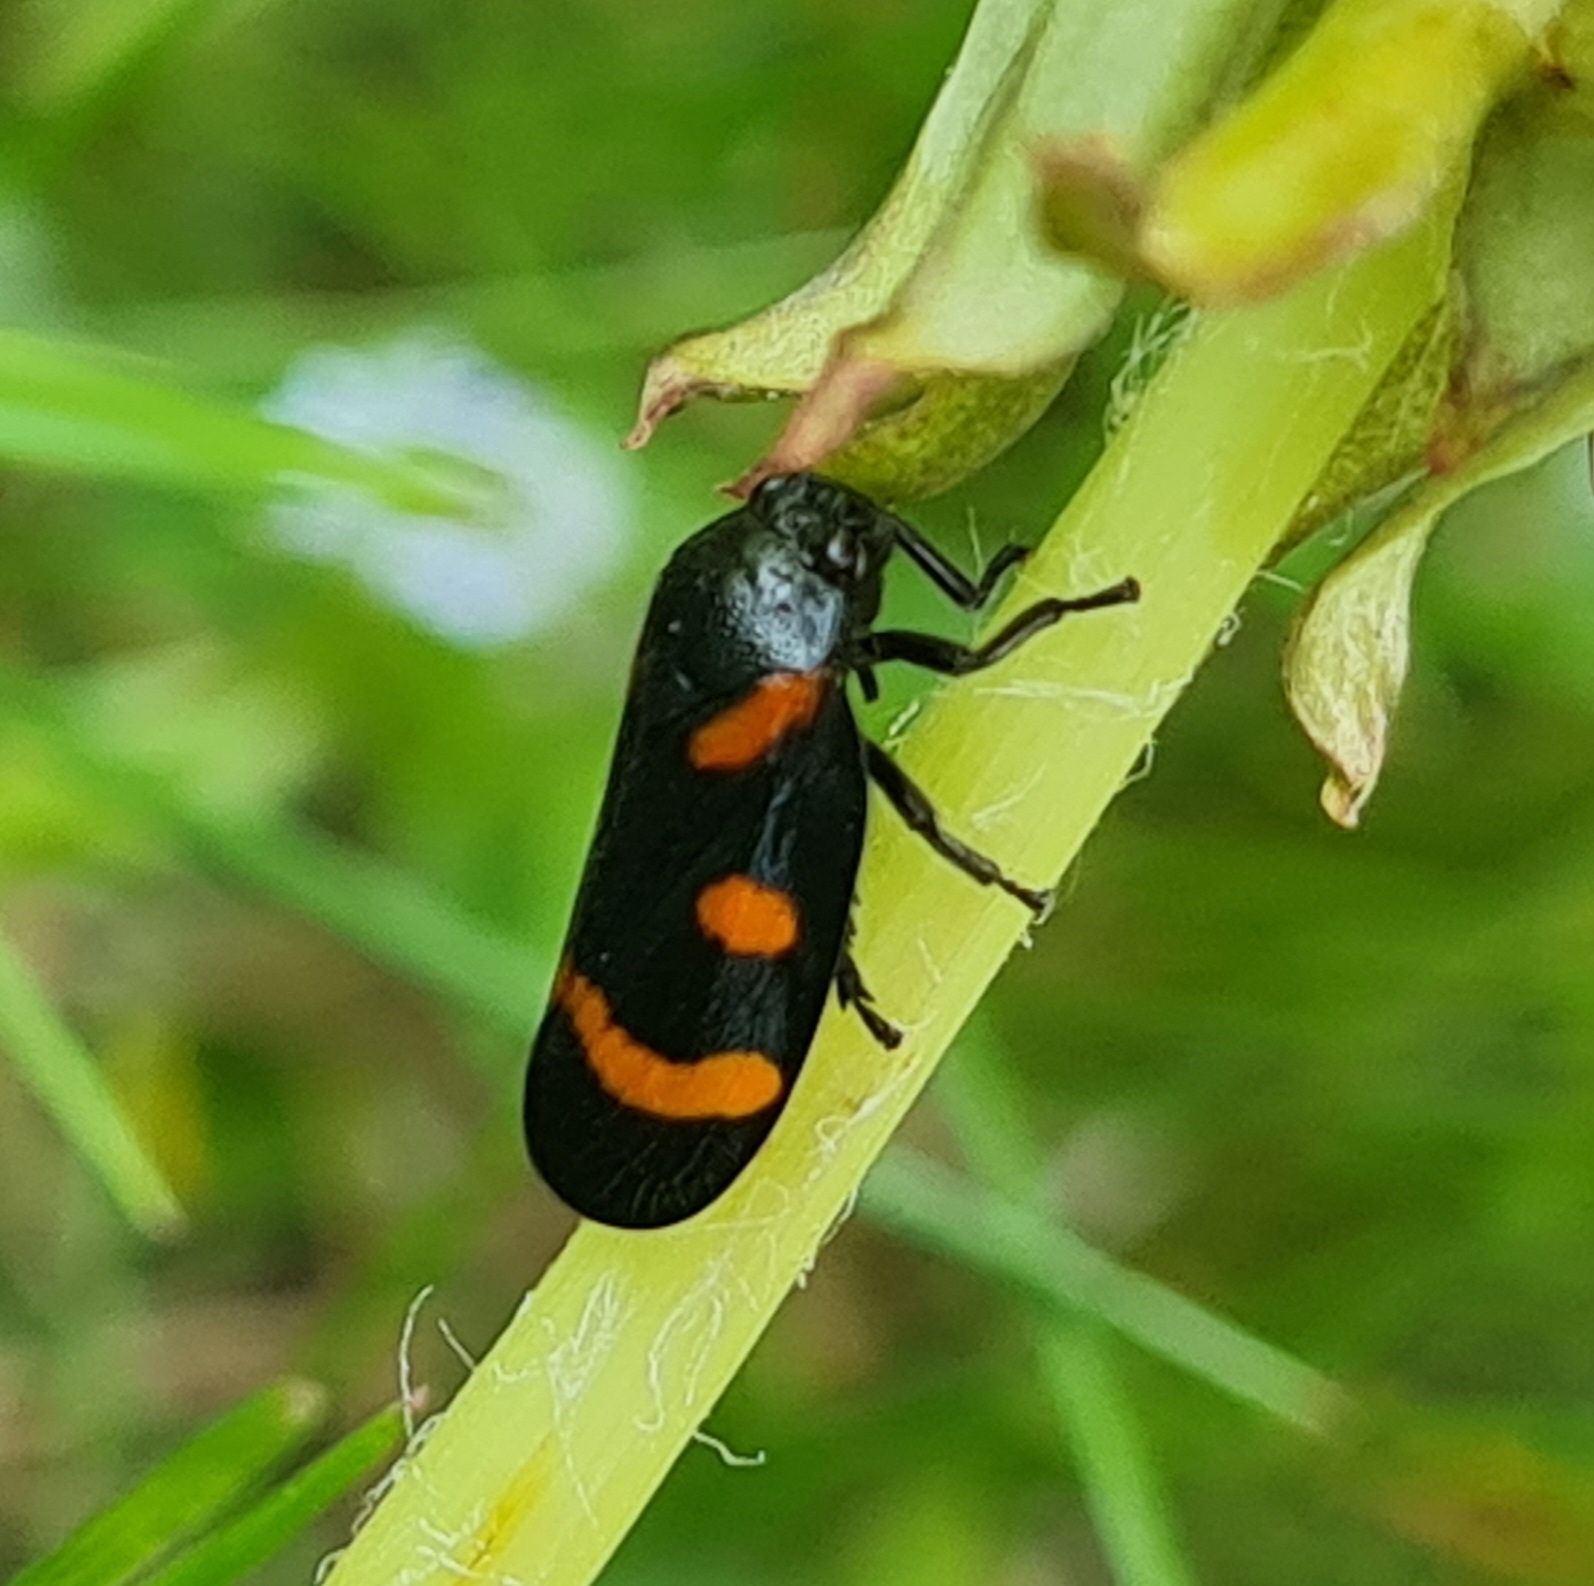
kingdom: Animalia
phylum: Arthropoda
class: Insecta
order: Hemiptera
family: Cercopidae
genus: Cercopis
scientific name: Cercopis sanguinolenta
